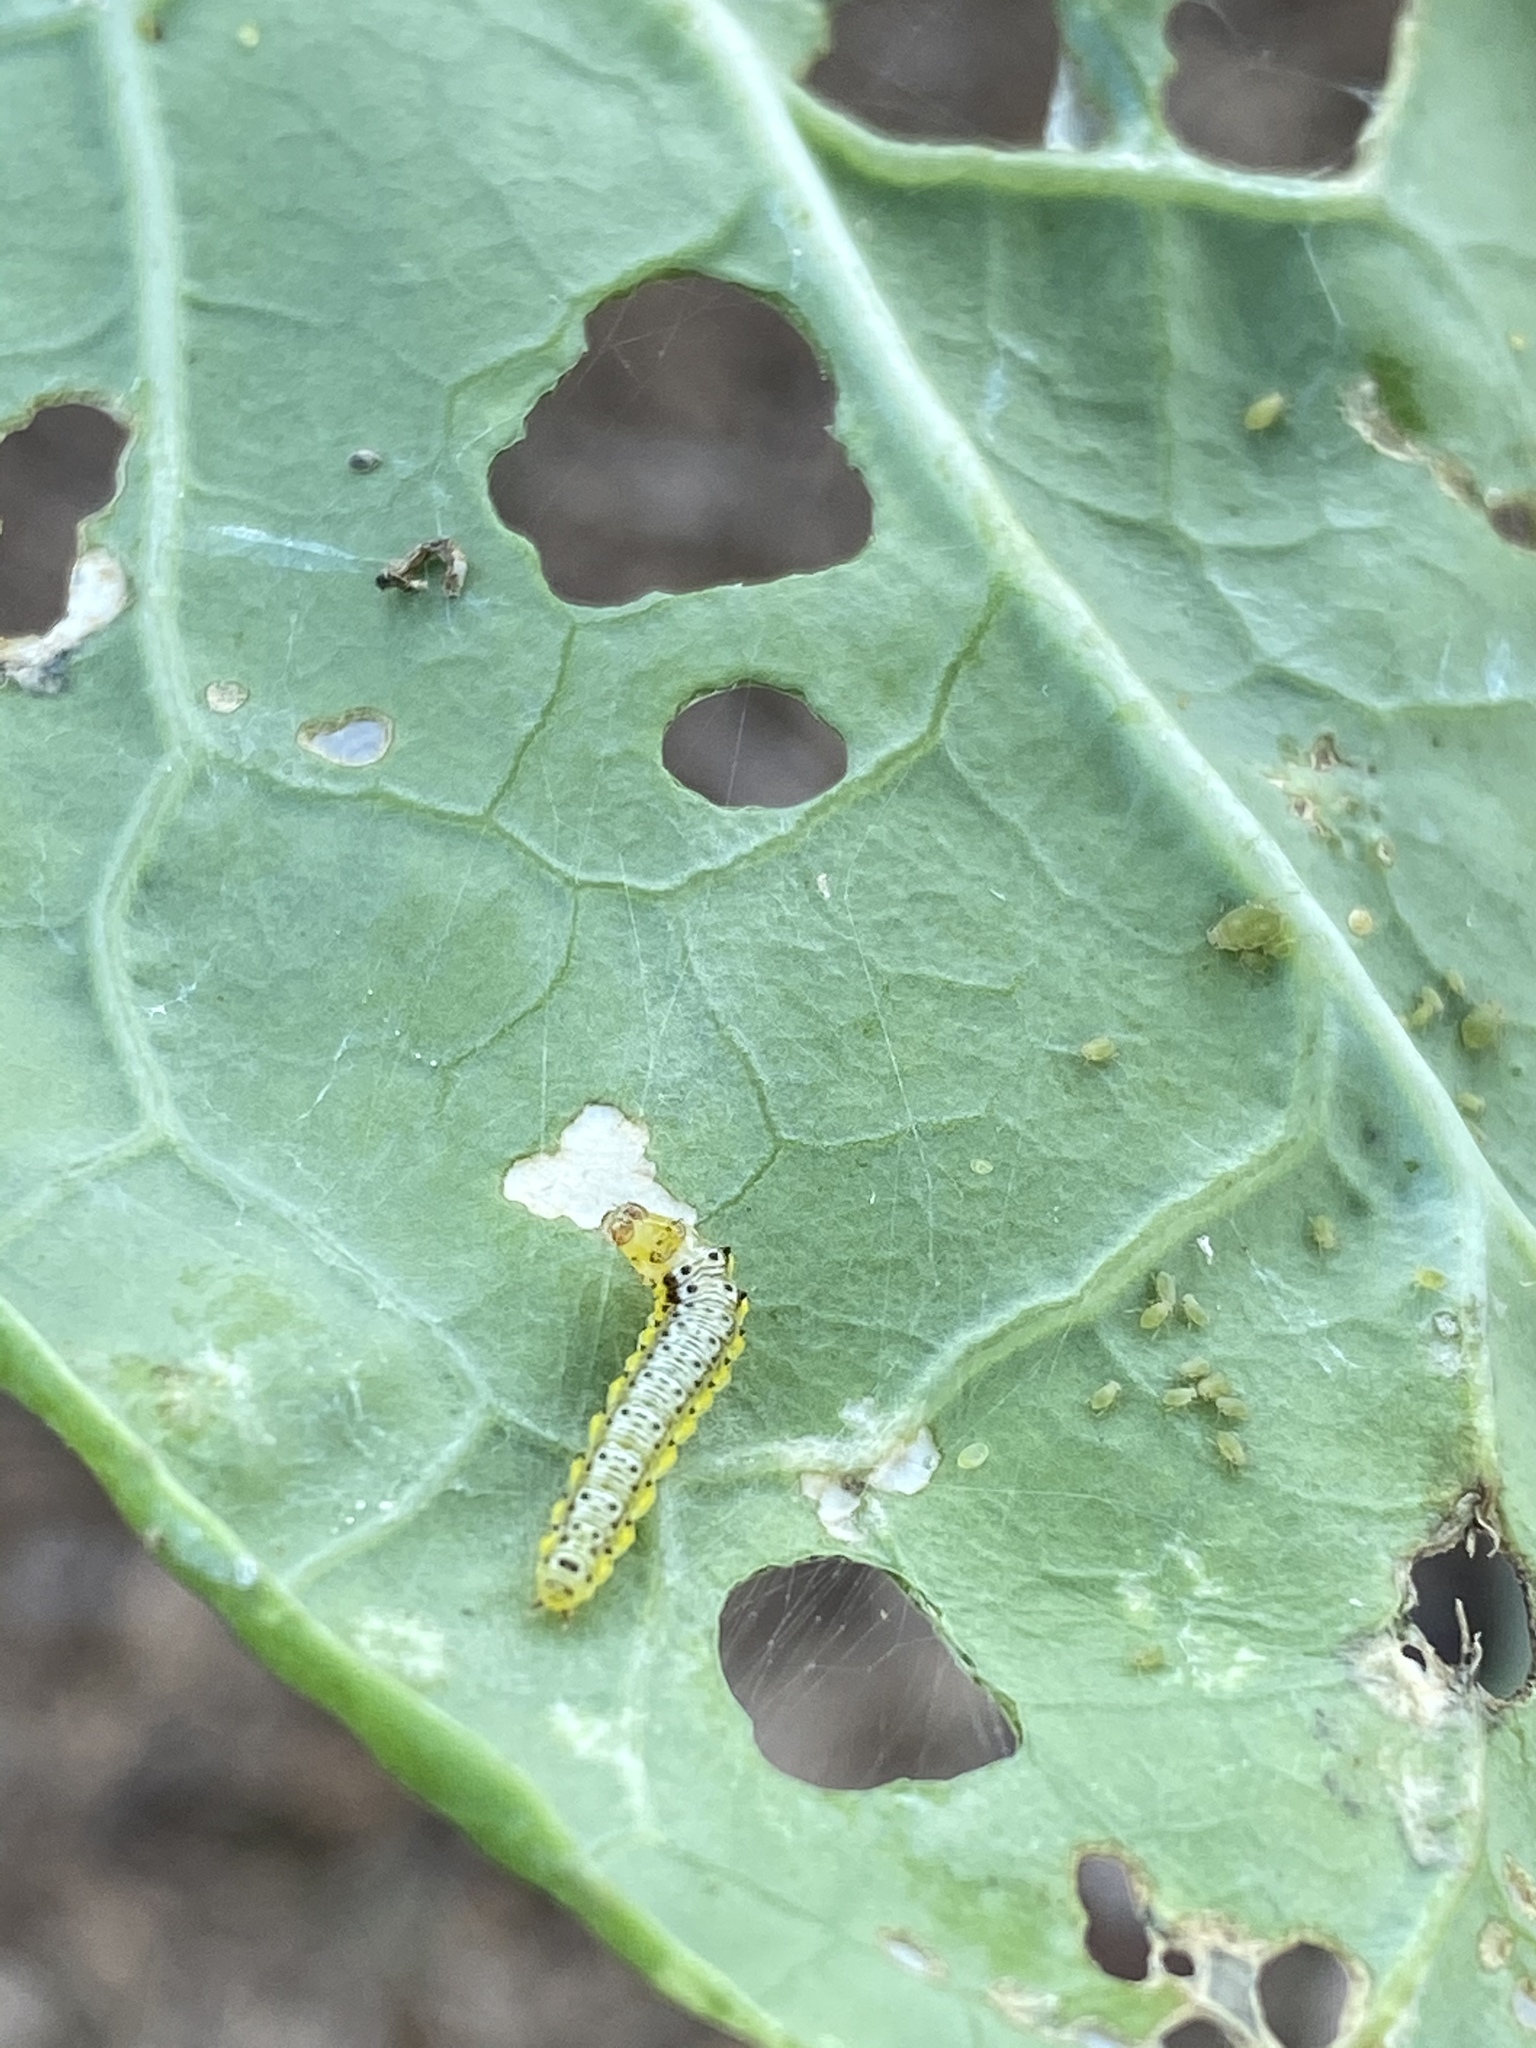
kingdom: Animalia
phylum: Arthropoda
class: Insecta
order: Lepidoptera
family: Crambidae
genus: Evergestis
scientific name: Evergestis rimosalis
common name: Cross-striped cabbageworm moth
